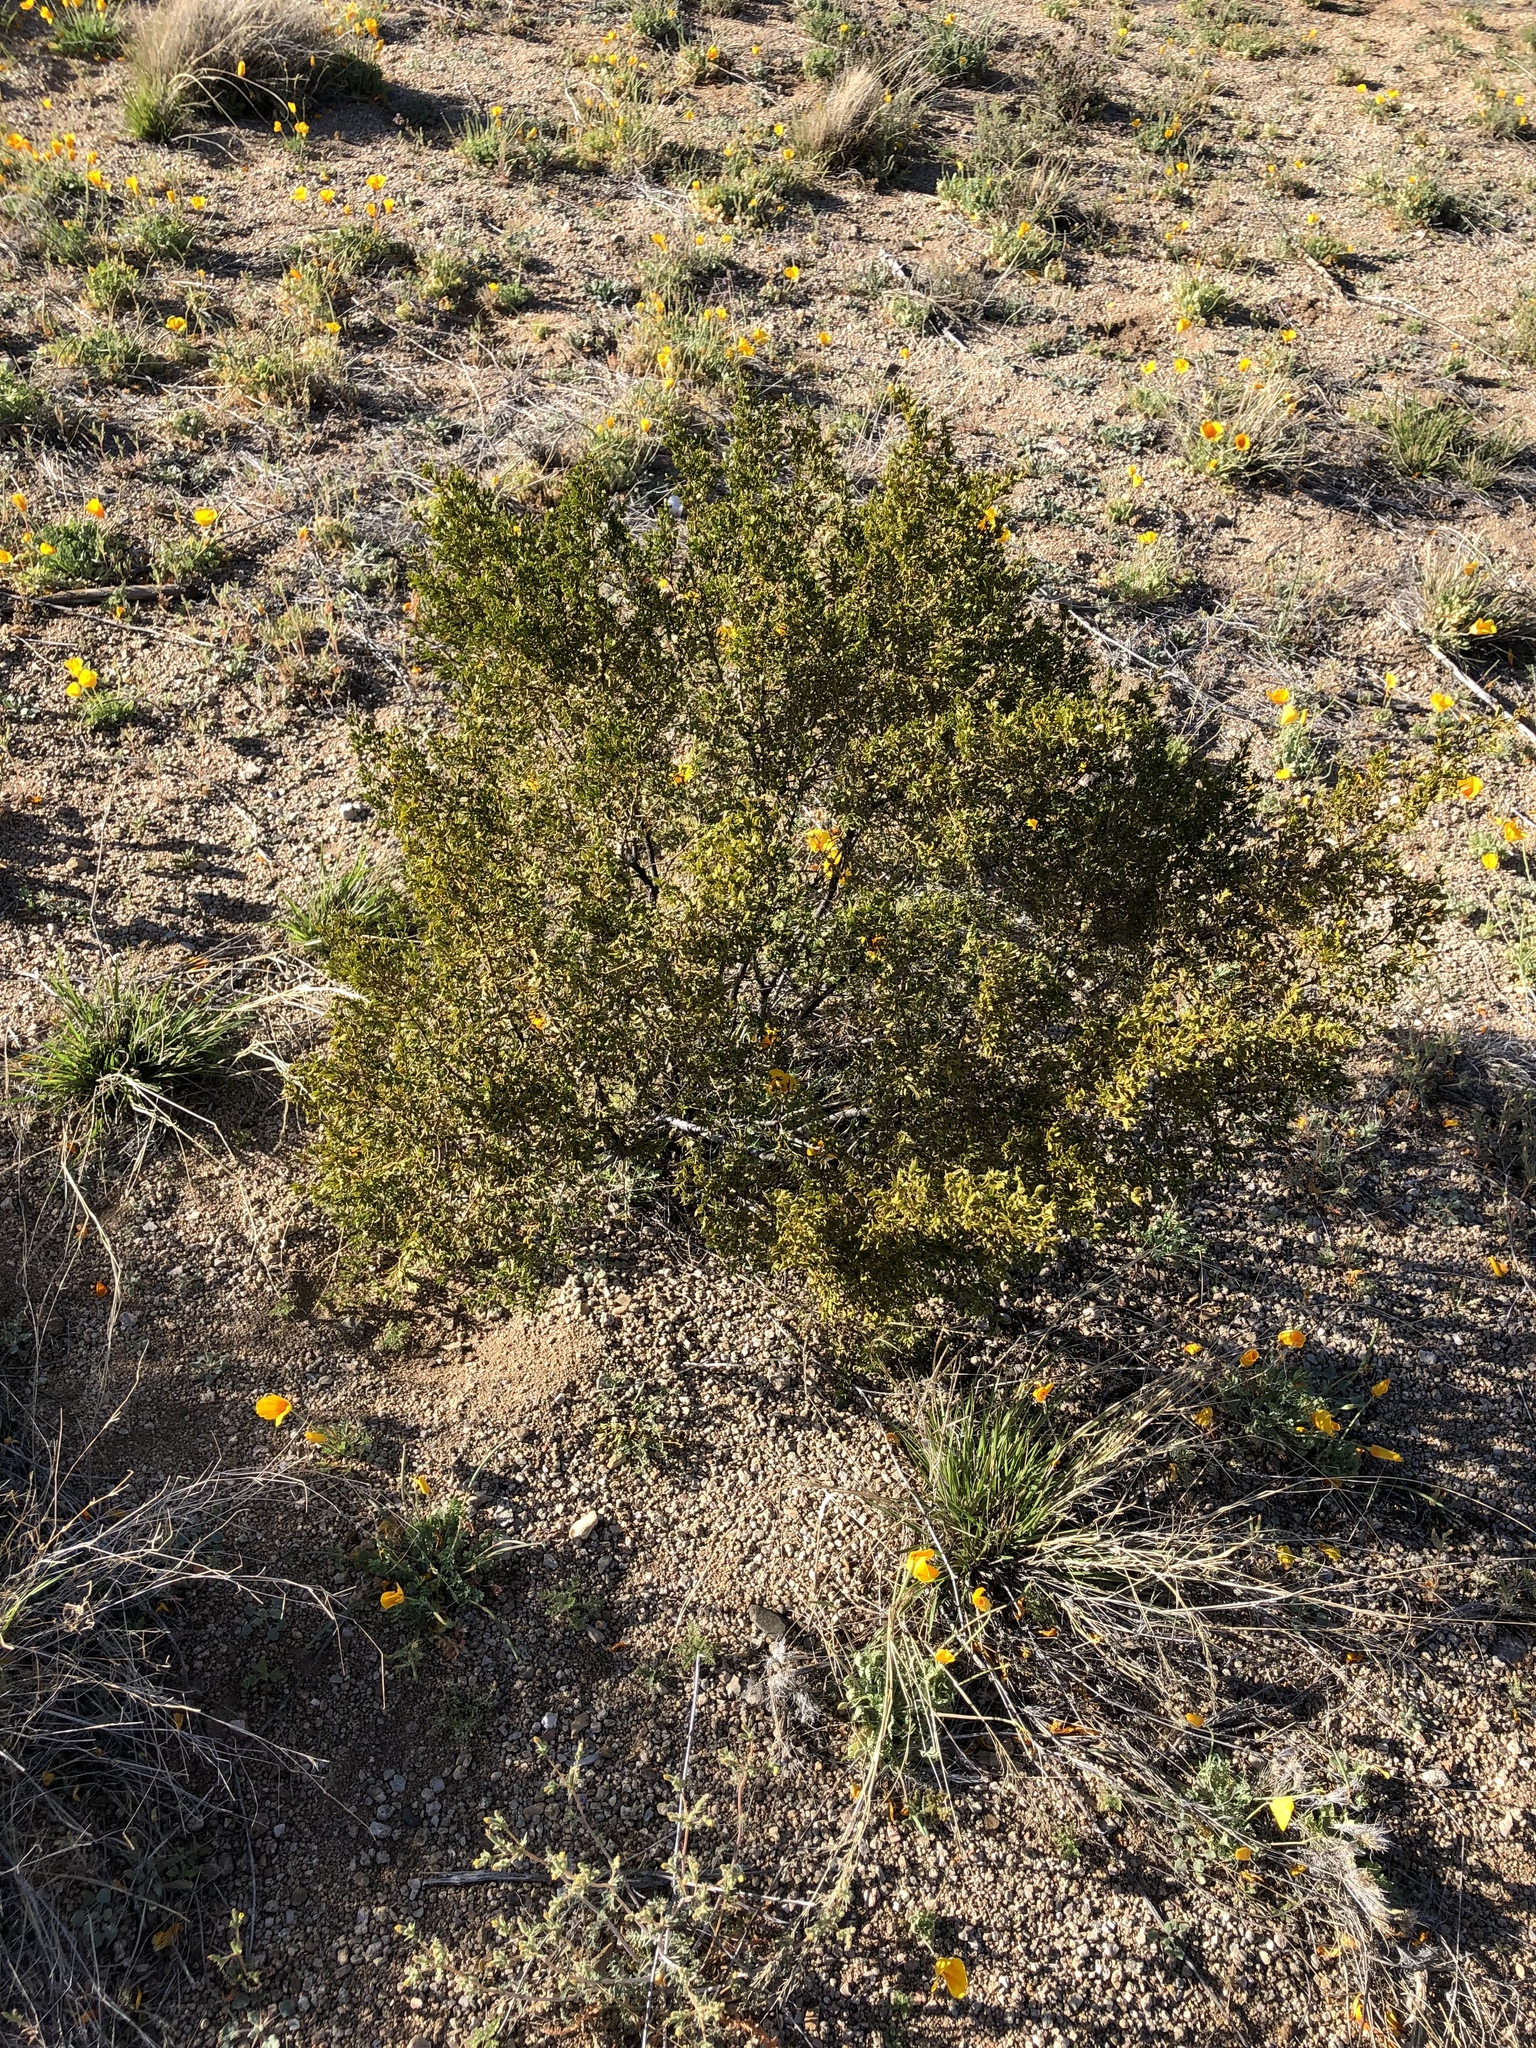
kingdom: Plantae
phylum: Tracheophyta
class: Magnoliopsida
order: Zygophyllales
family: Zygophyllaceae
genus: Larrea
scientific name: Larrea tridentata
